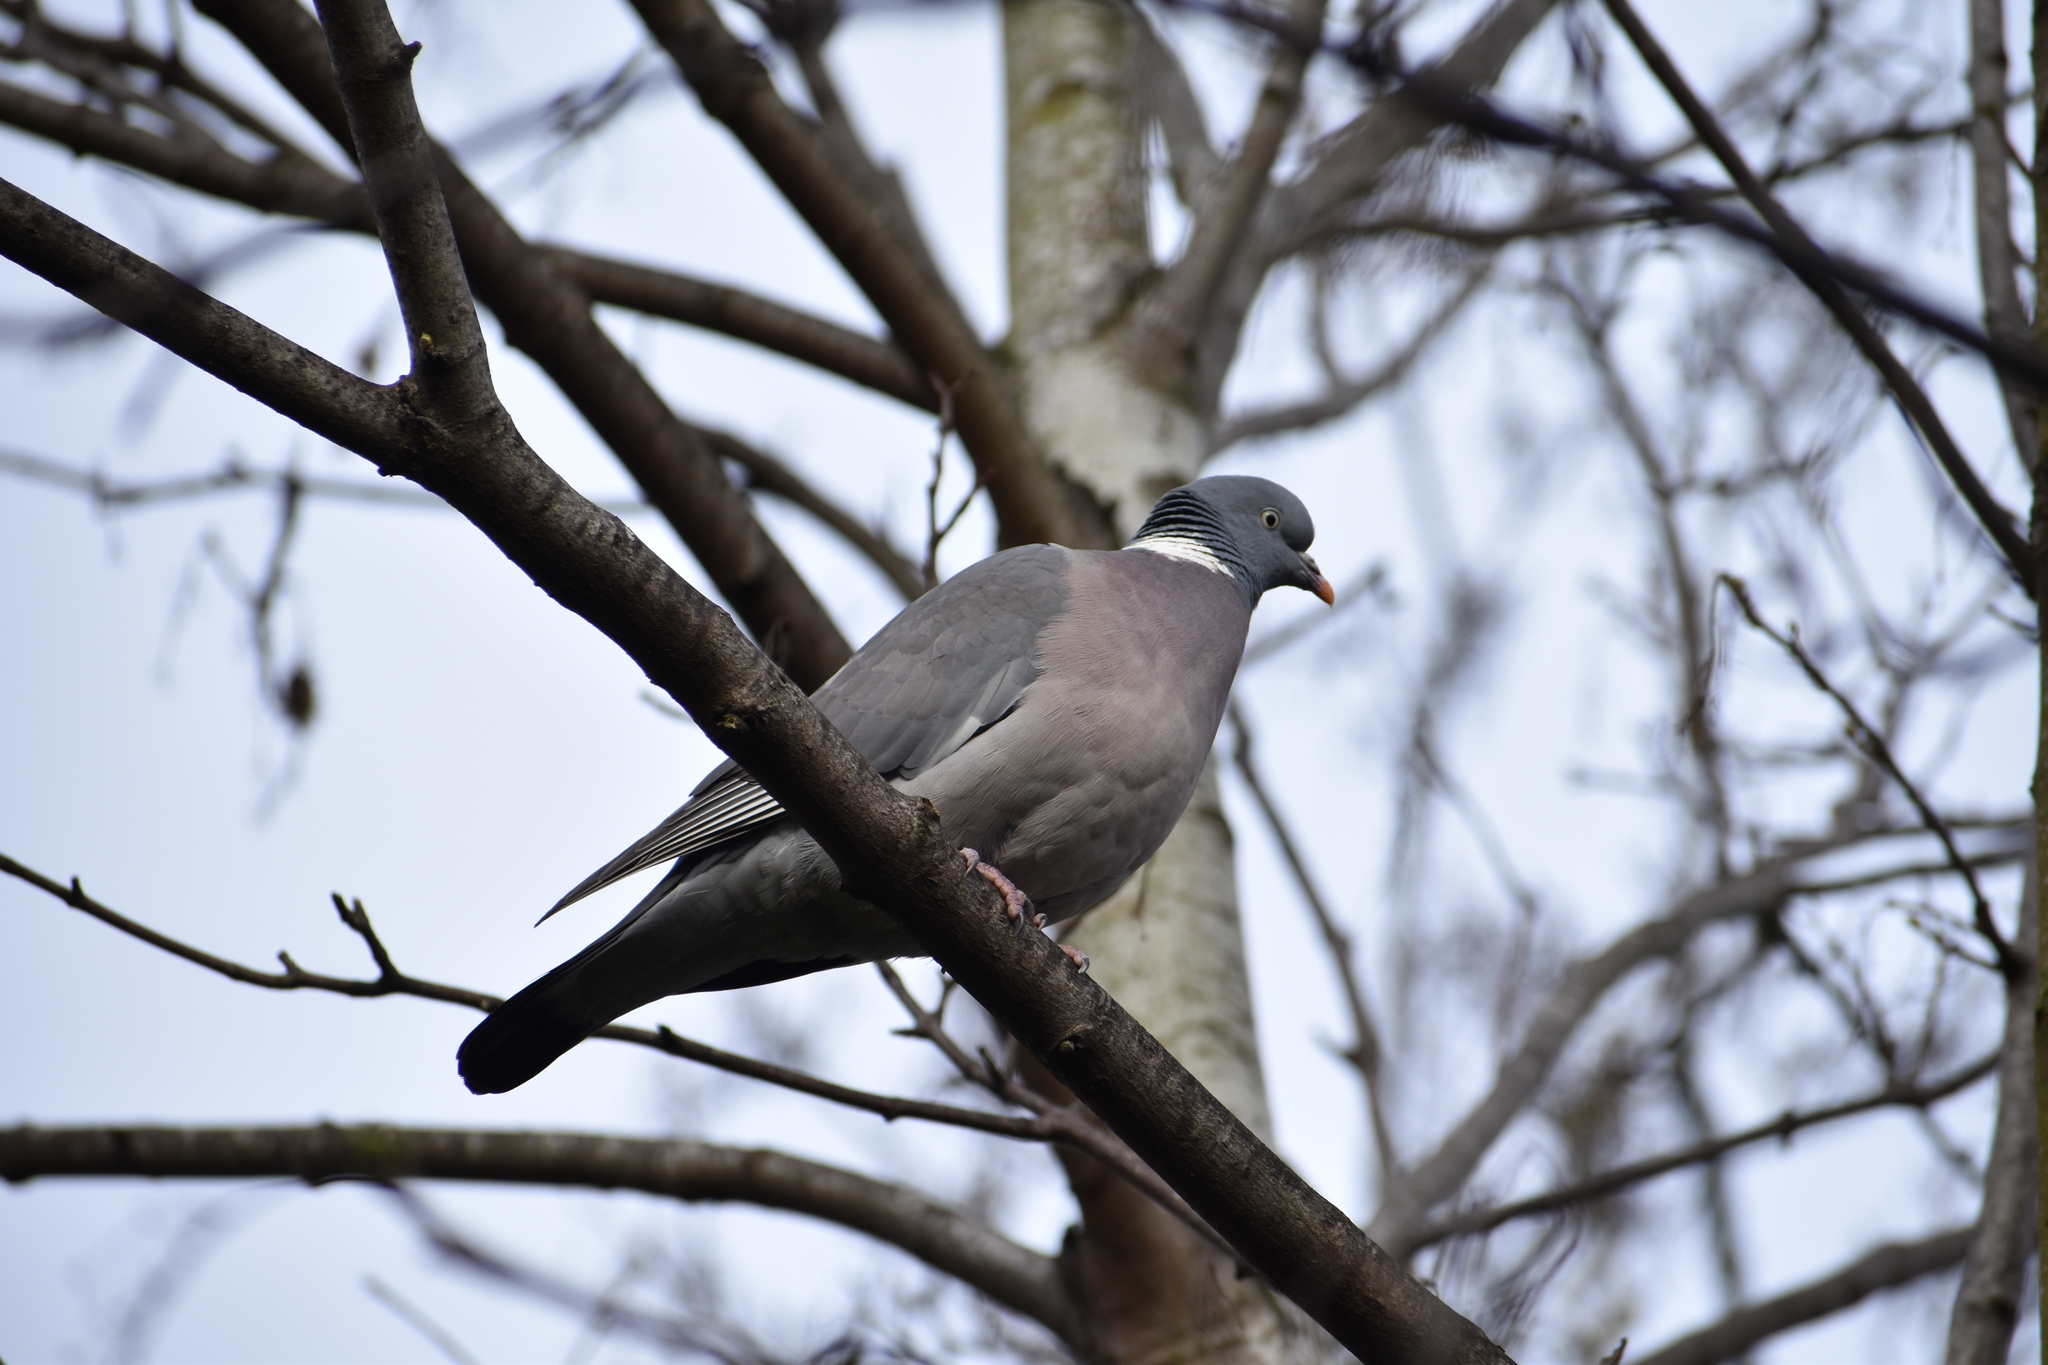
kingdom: Animalia
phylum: Chordata
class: Aves
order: Columbiformes
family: Columbidae
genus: Columba
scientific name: Columba palumbus
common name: Common wood pigeon
